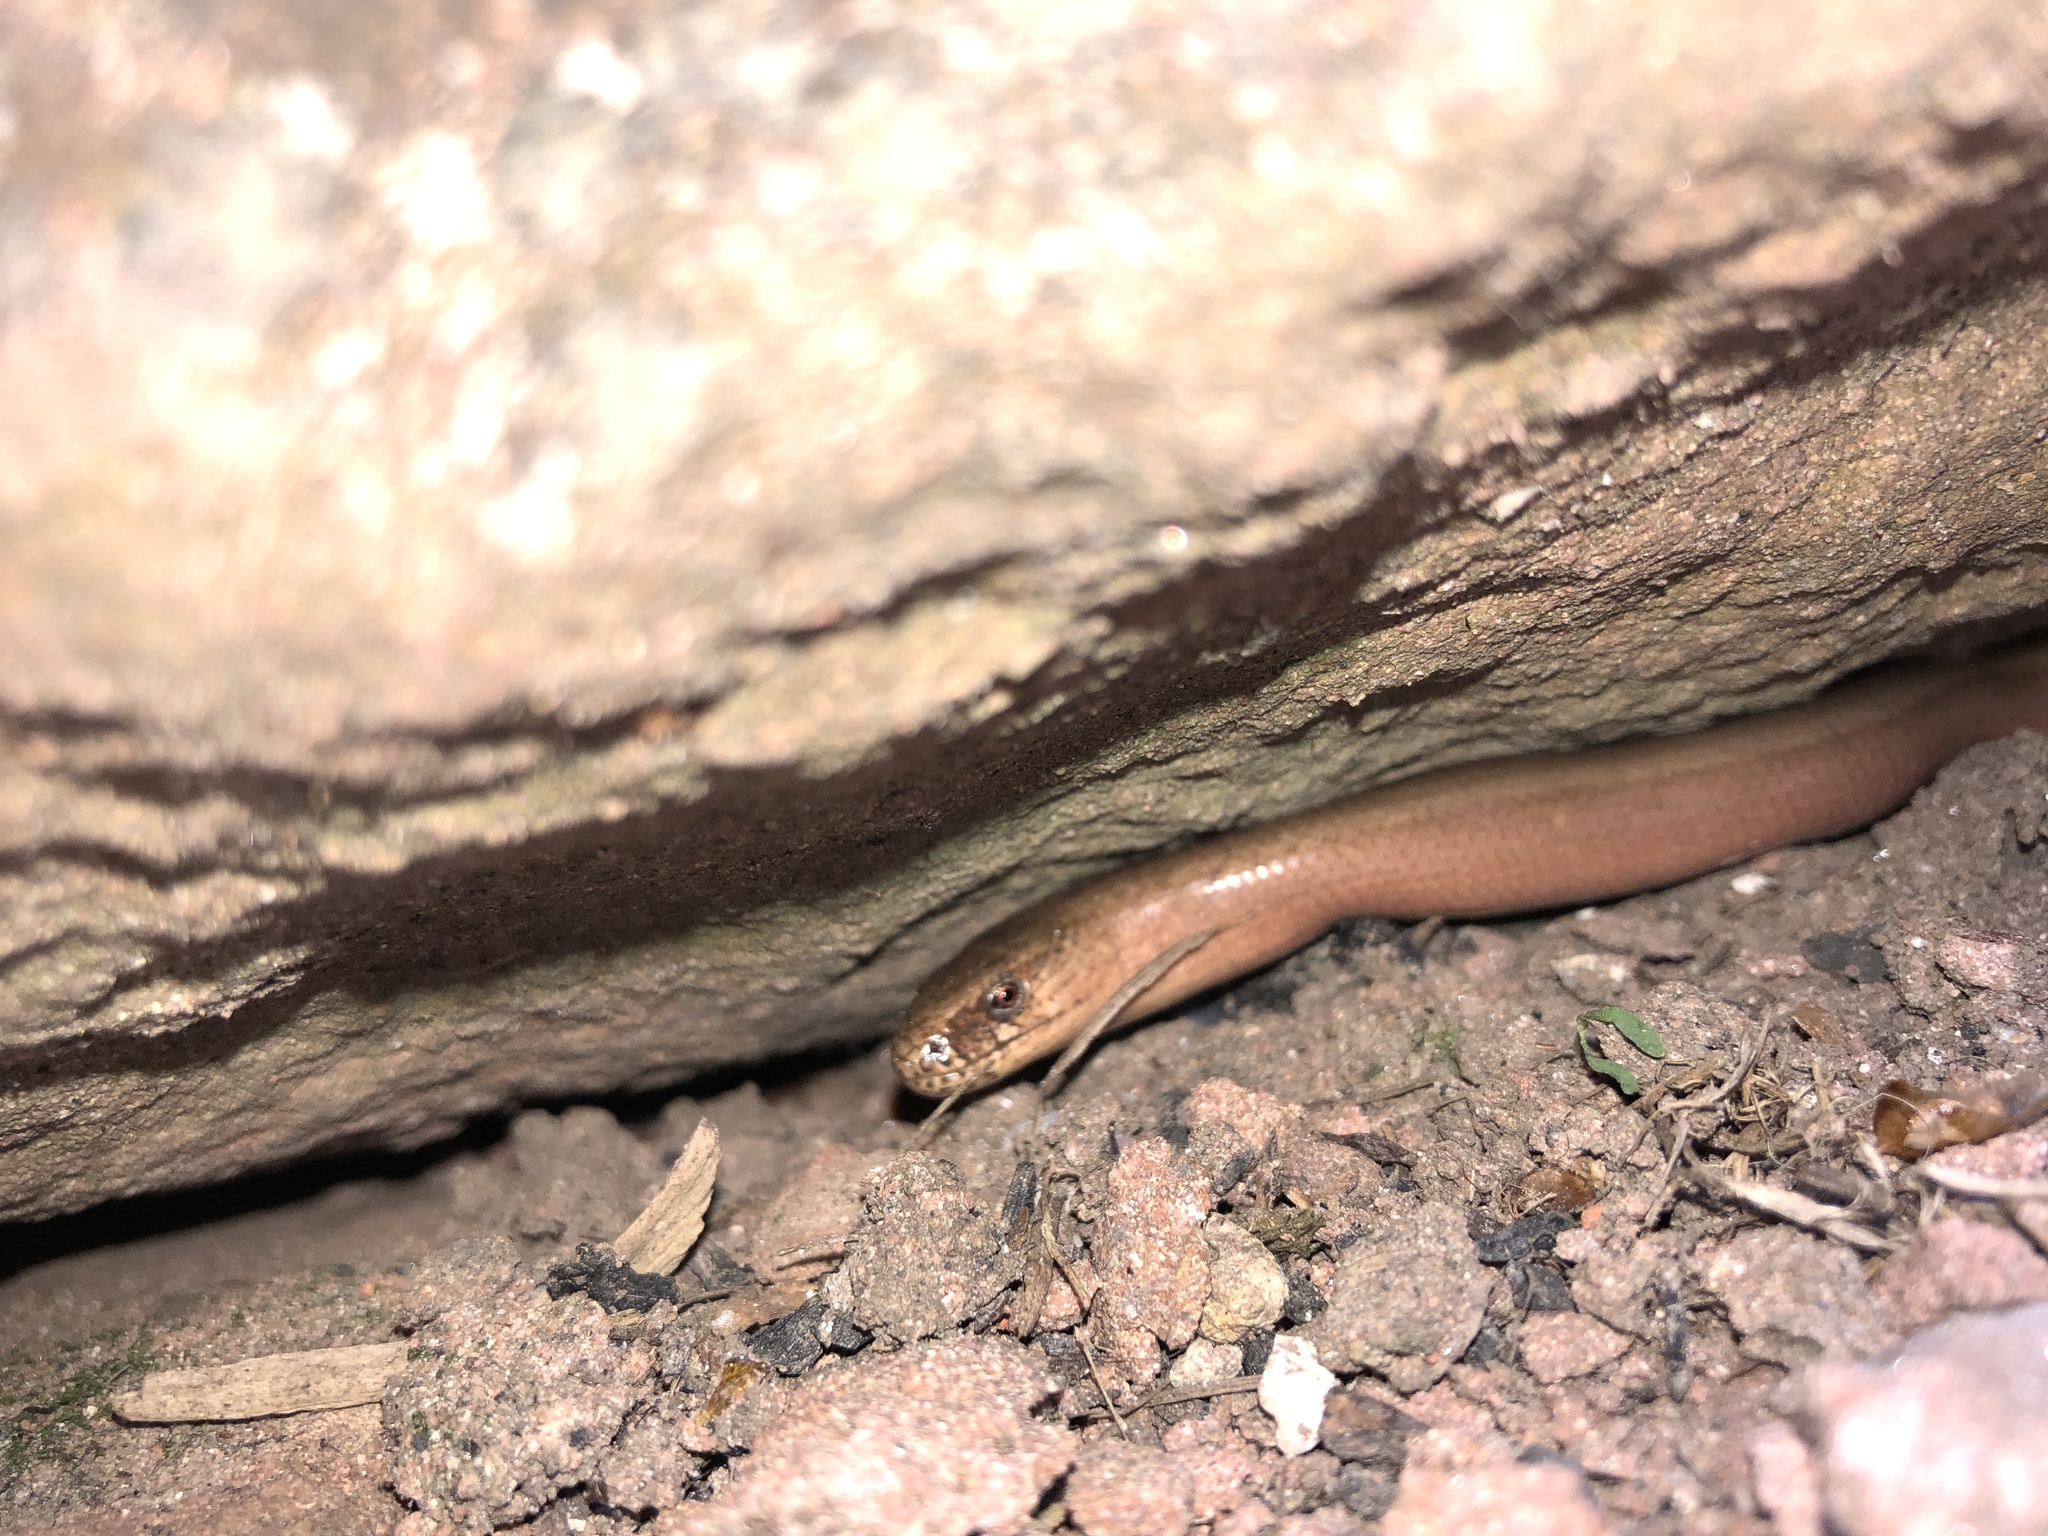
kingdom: Animalia
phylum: Chordata
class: Squamata
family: Anguidae
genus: Anguis
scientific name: Anguis fragilis
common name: Slow worm
